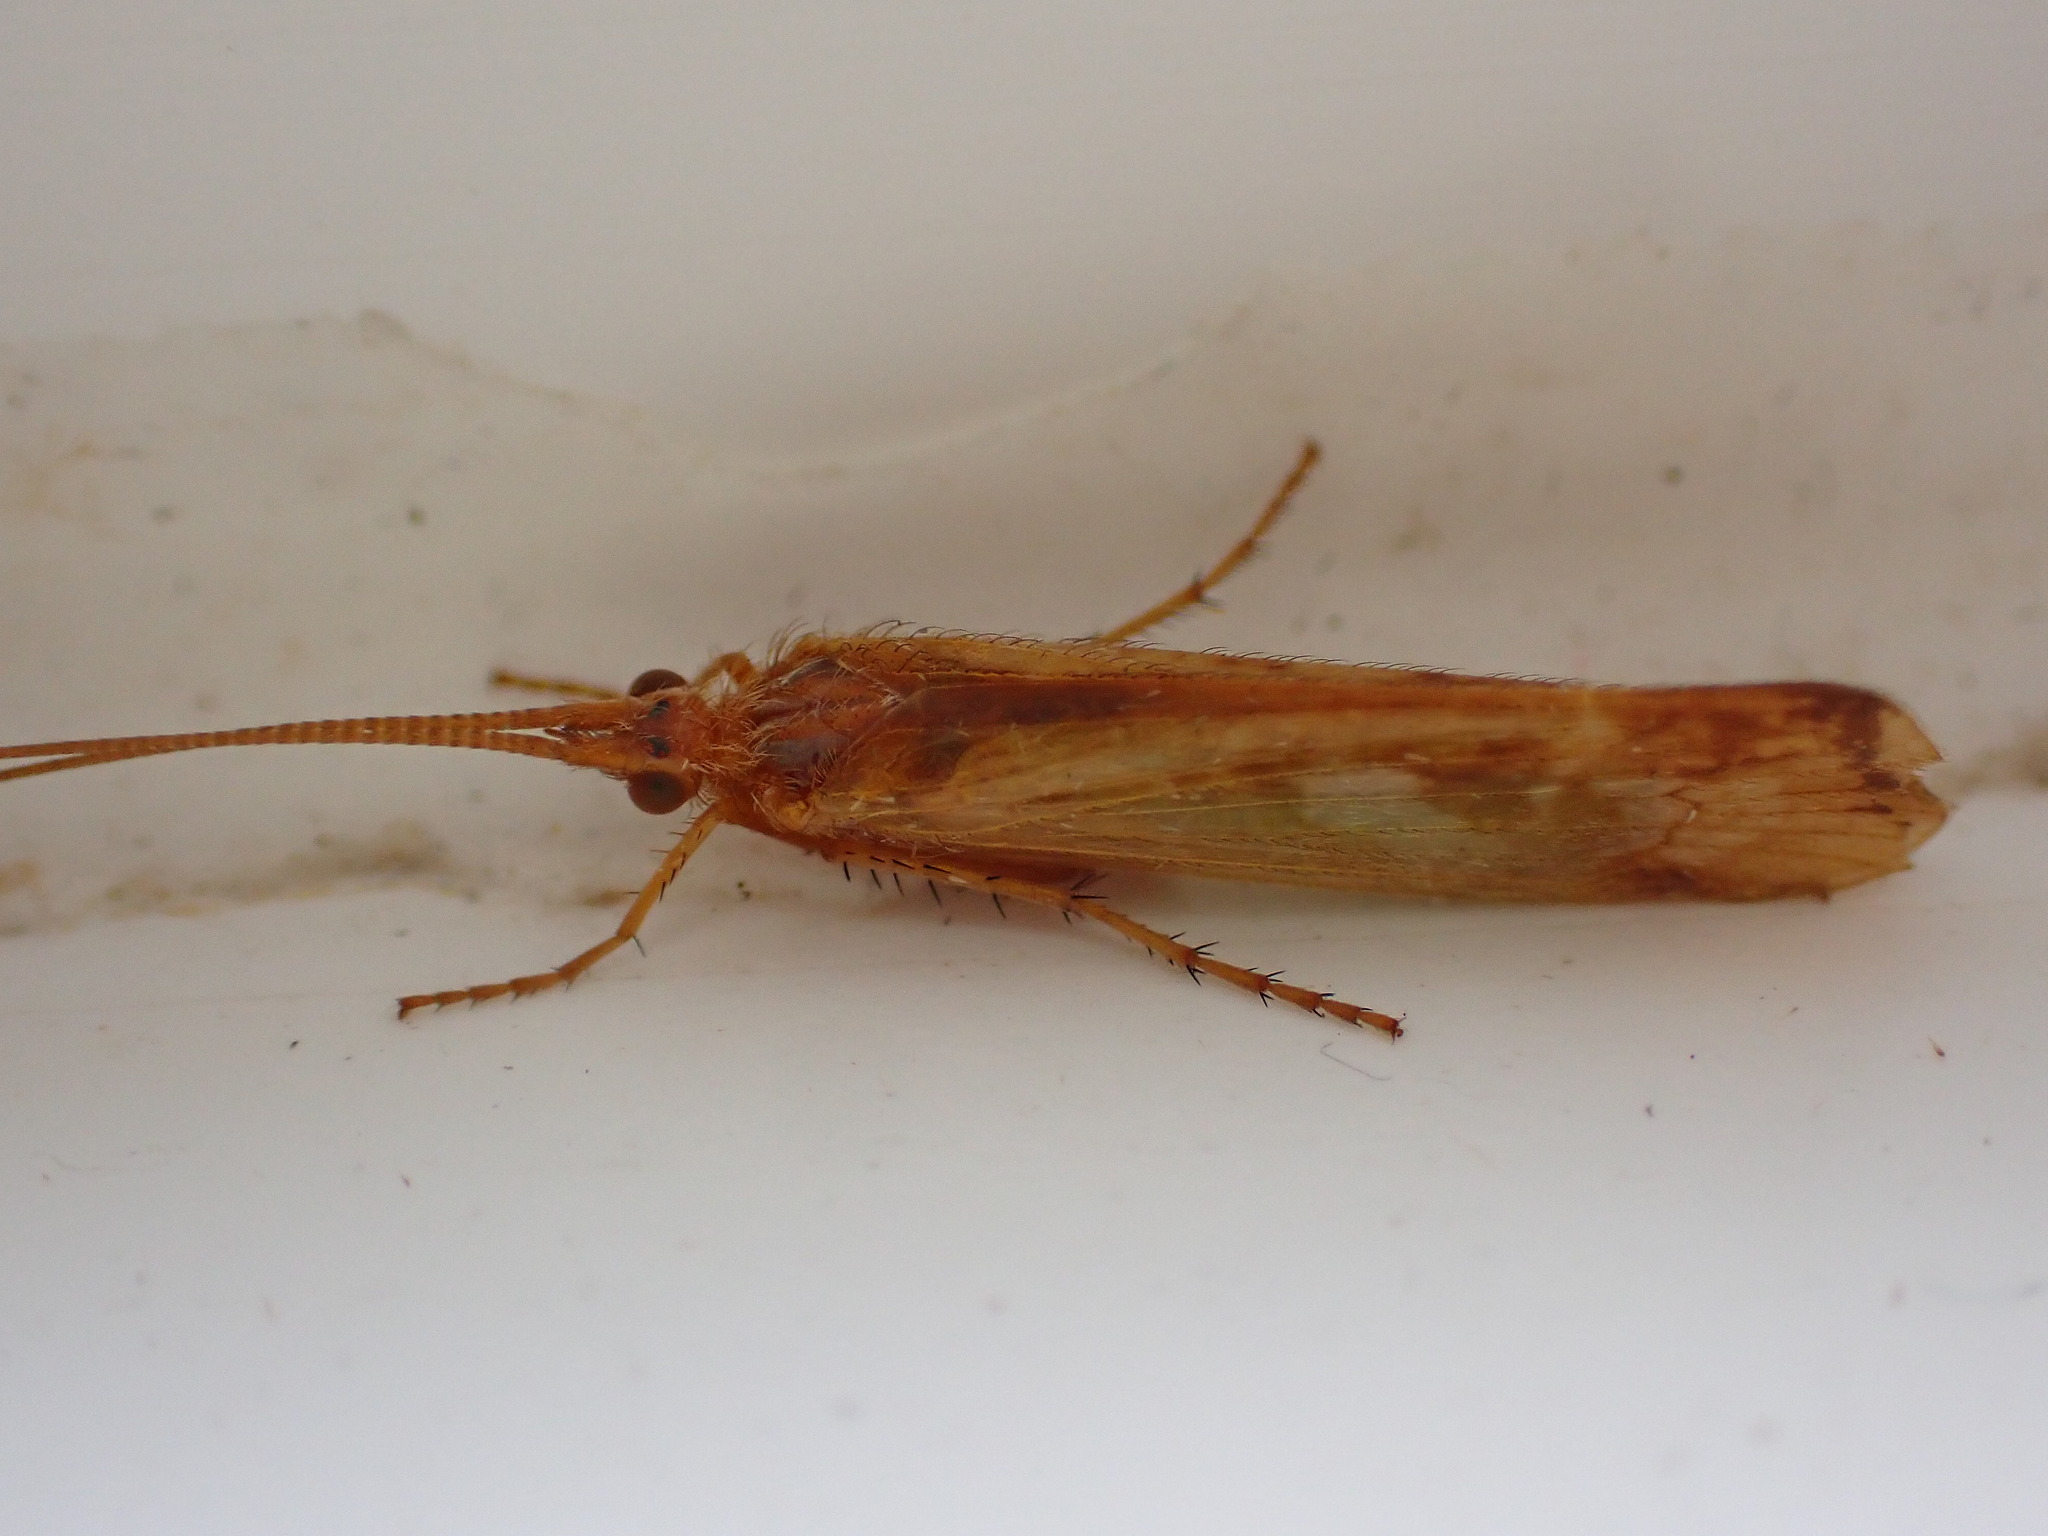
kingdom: Animalia
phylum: Arthropoda
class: Insecta
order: Trichoptera
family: Limnephilidae
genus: Limnephilus
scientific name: Limnephilus lunatus
